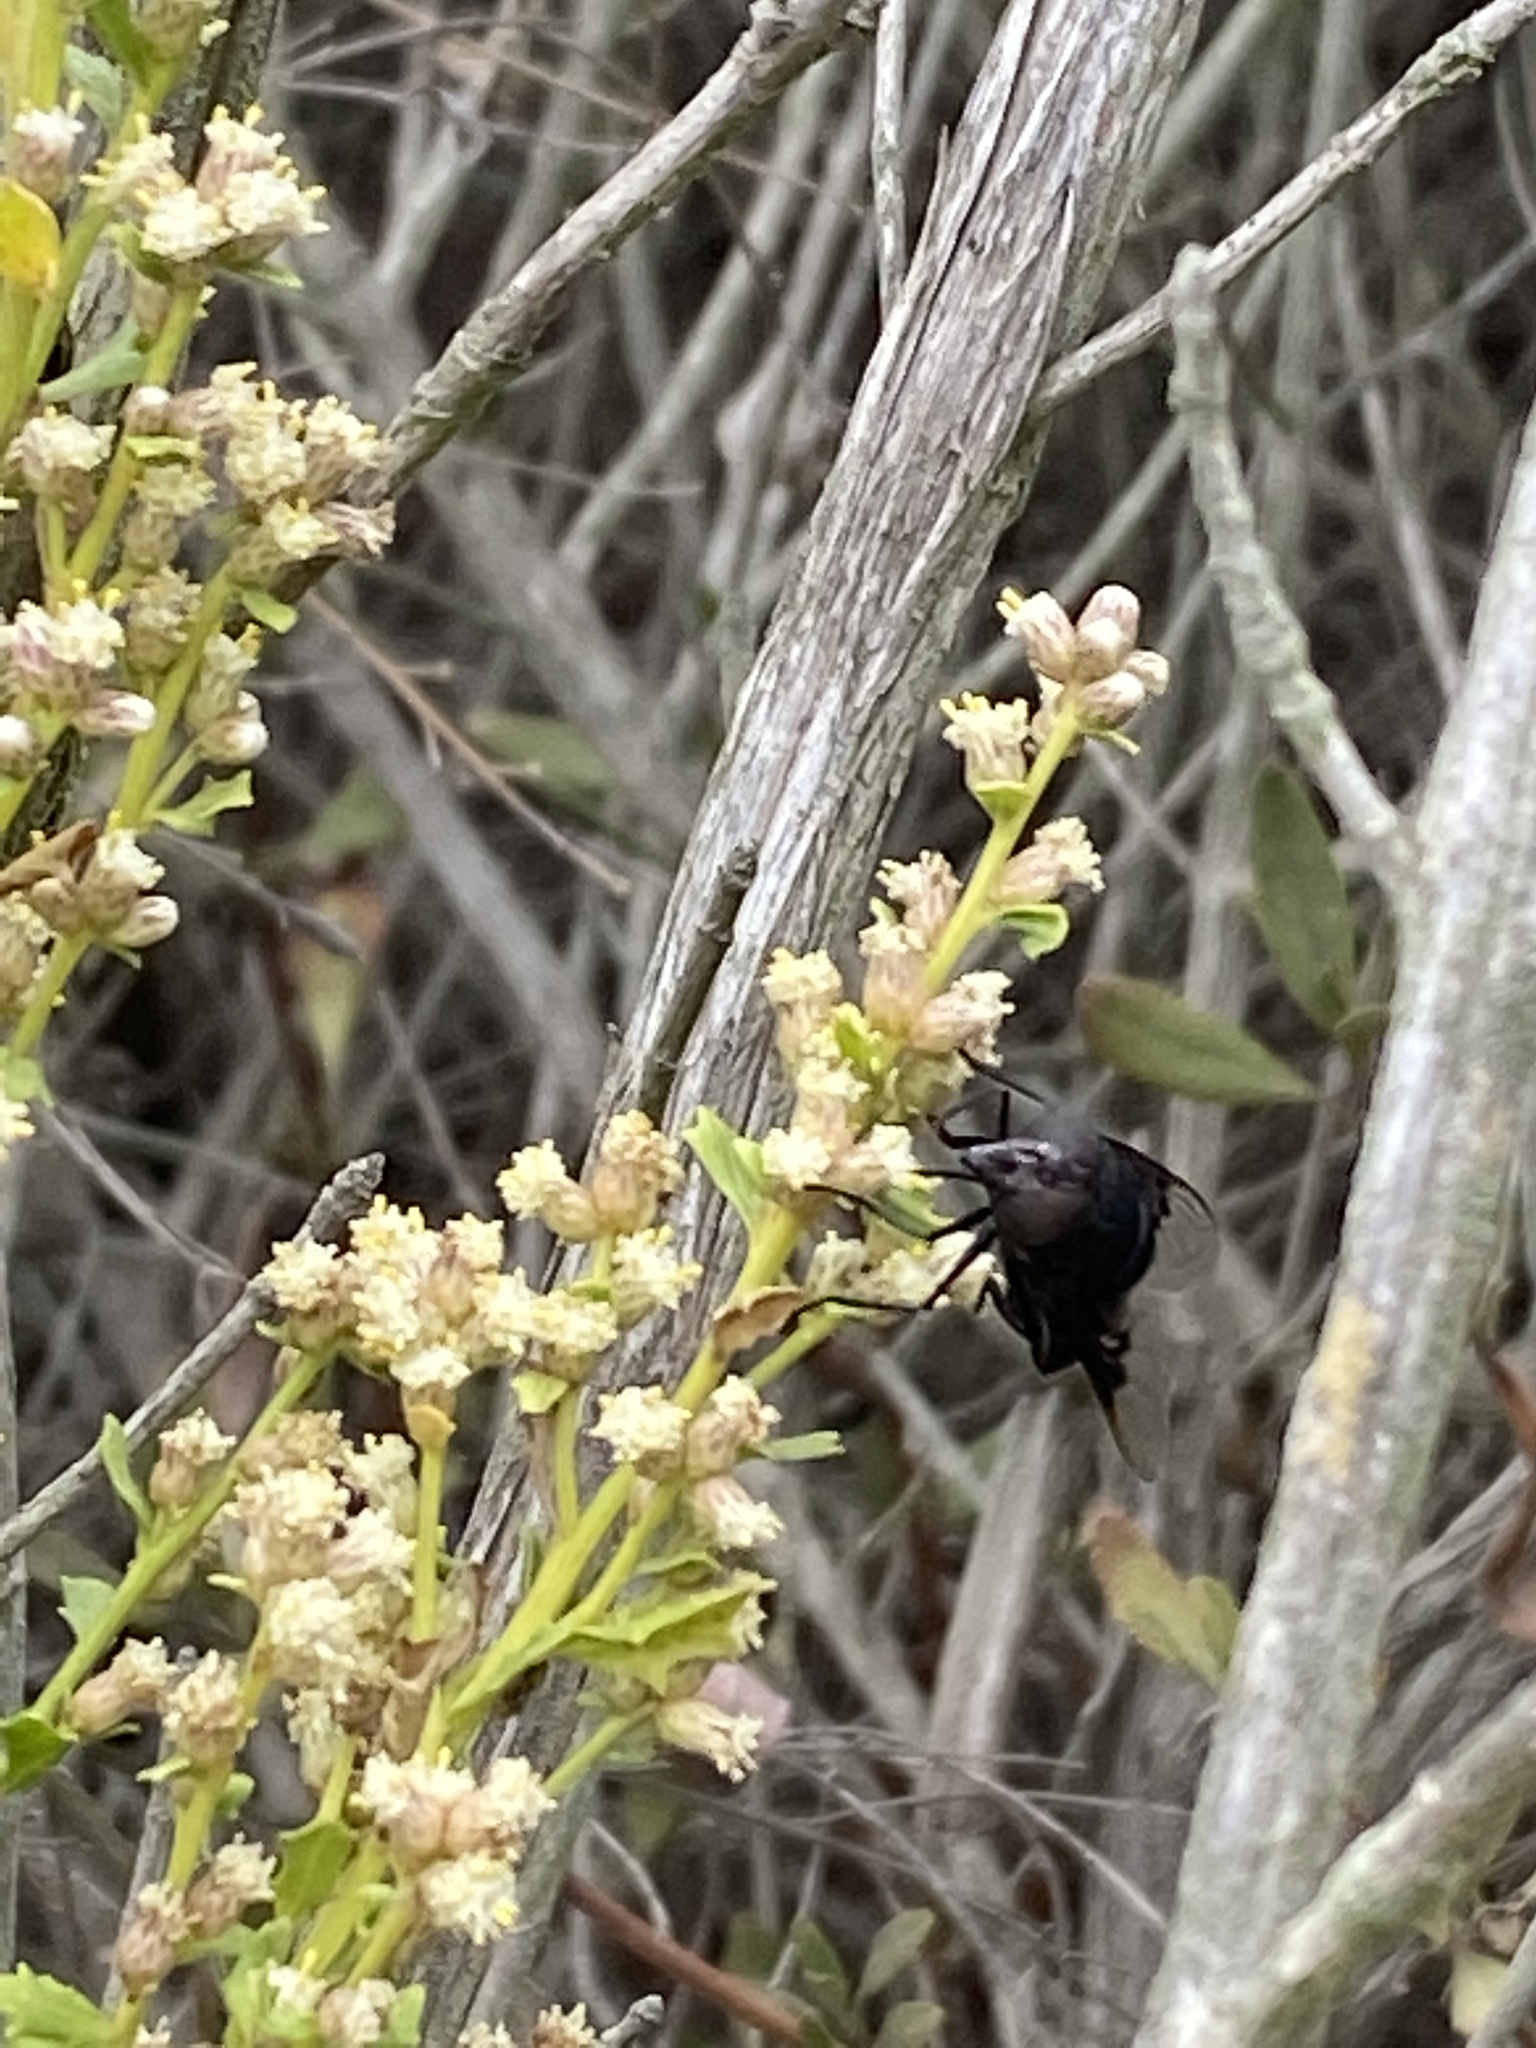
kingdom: Animalia
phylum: Arthropoda
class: Insecta
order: Diptera
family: Syrphidae
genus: Copestylum
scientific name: Copestylum mexicanum
